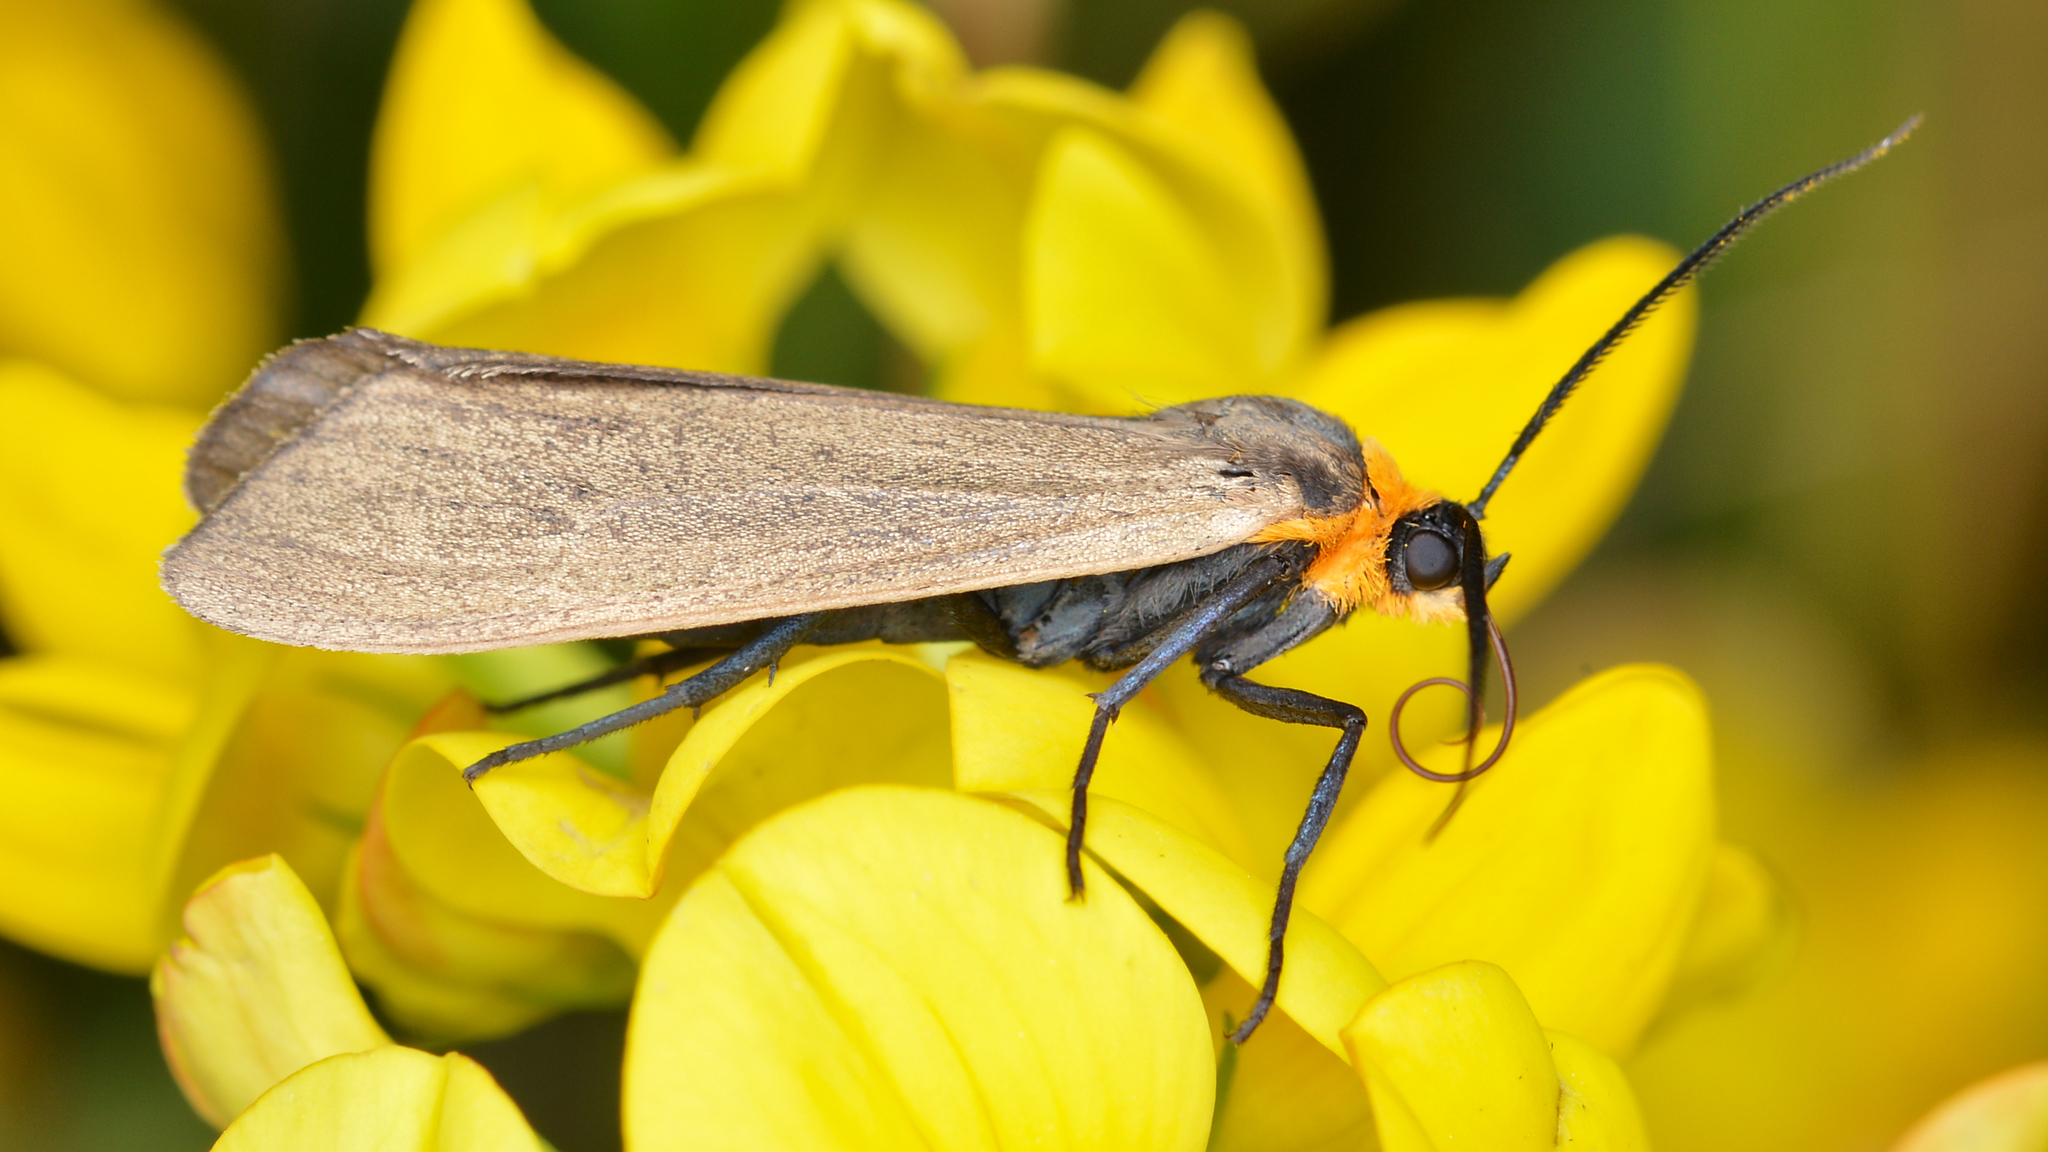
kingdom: Animalia
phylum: Arthropoda
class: Insecta
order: Lepidoptera
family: Erebidae
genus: Cisseps
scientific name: Cisseps fulvicollis
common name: Yellow-collared scape moth
